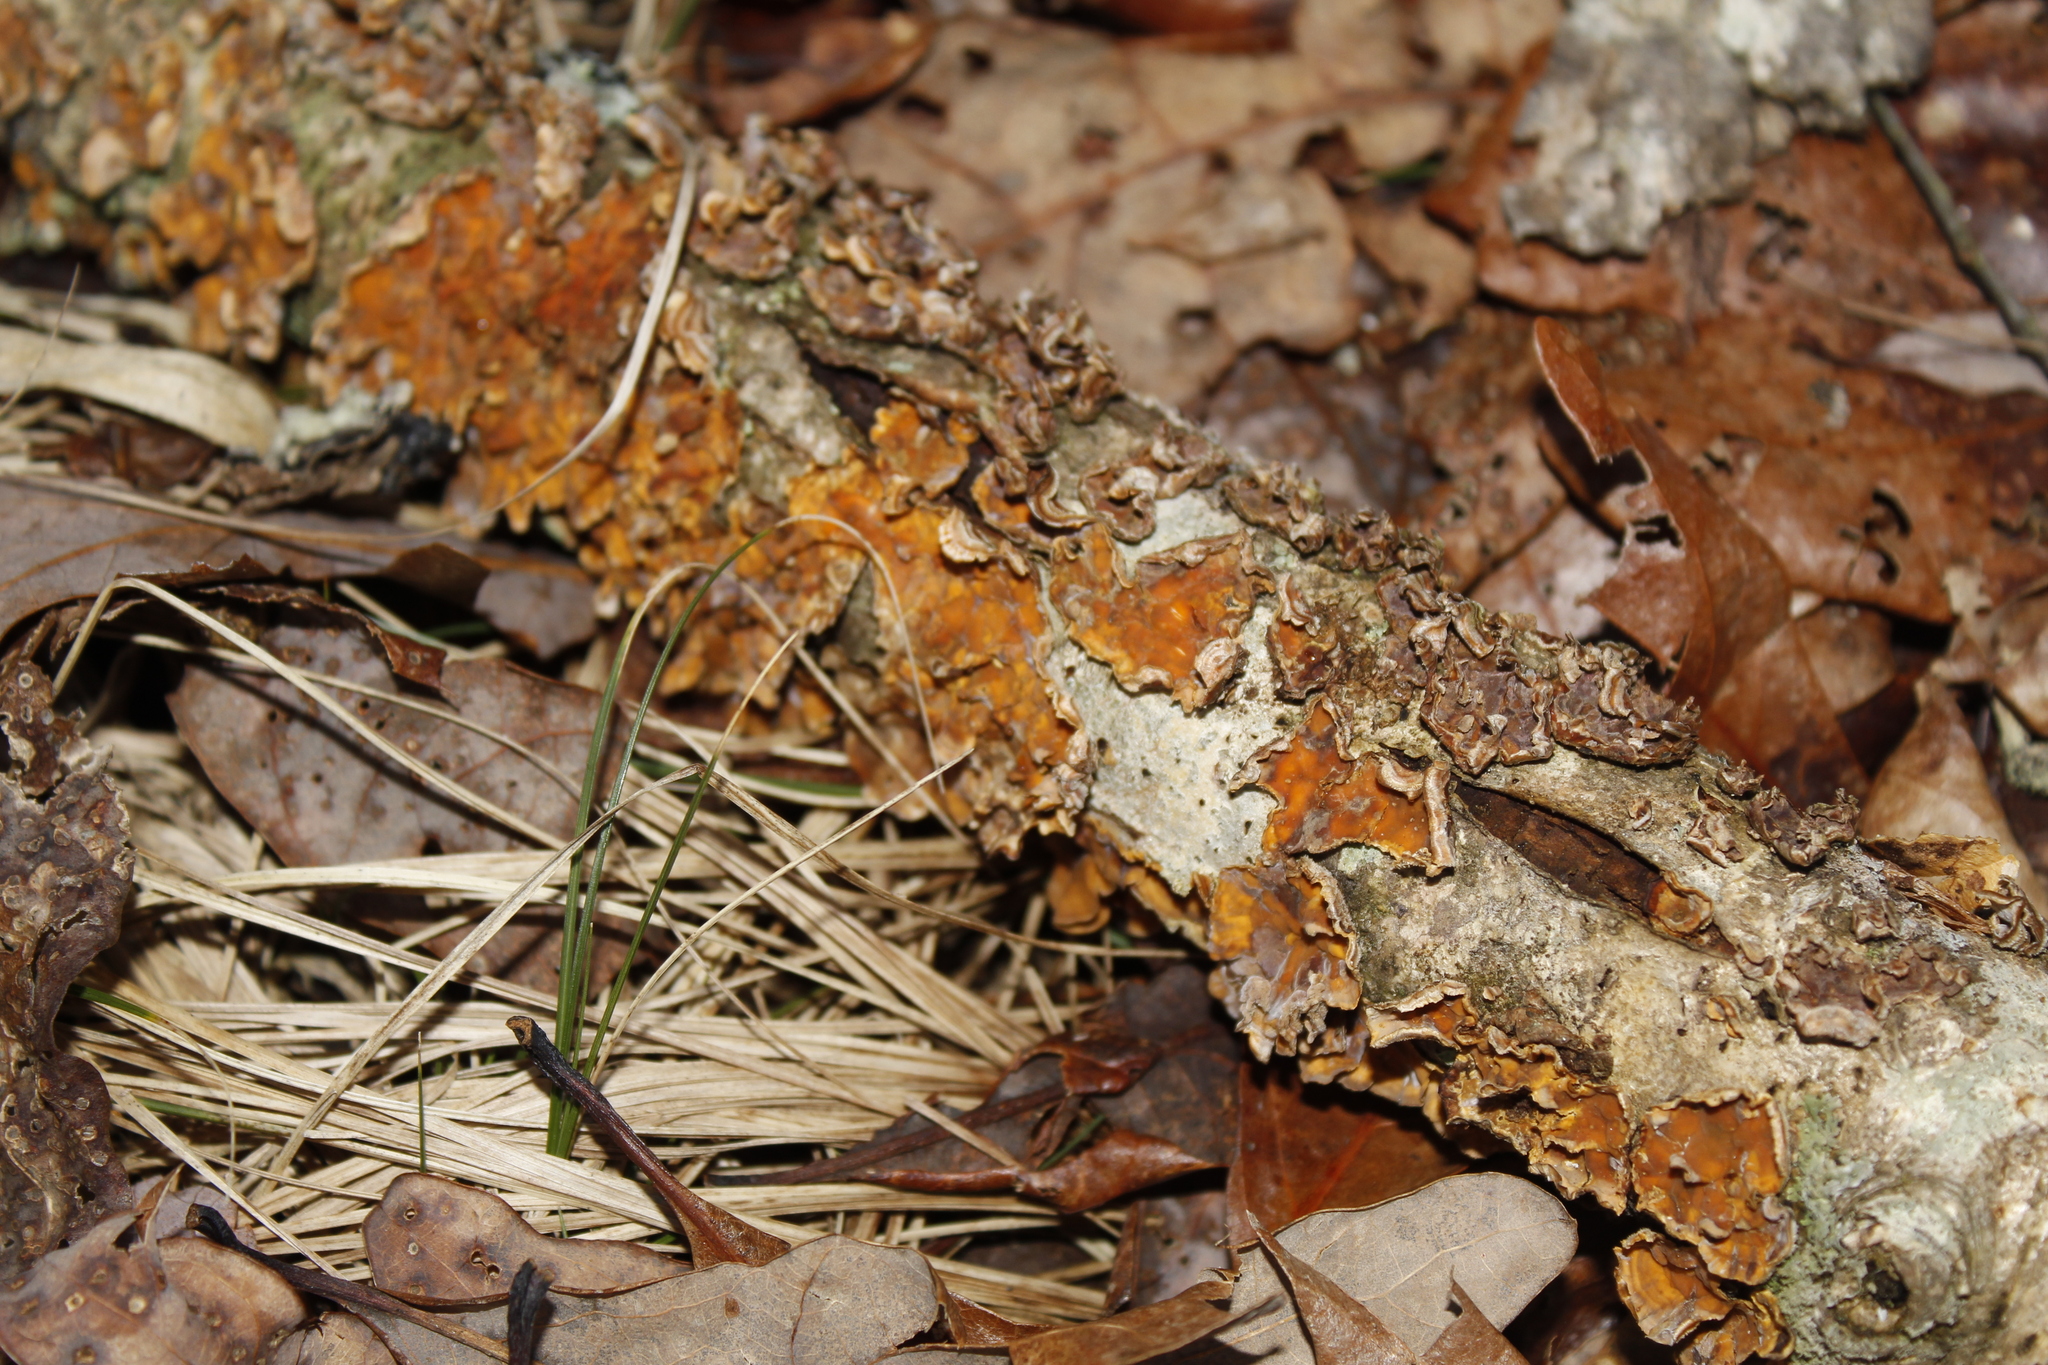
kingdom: Fungi
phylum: Basidiomycota
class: Agaricomycetes
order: Russulales
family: Stereaceae
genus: Stereum
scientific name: Stereum complicatum
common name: Crowded parchment
